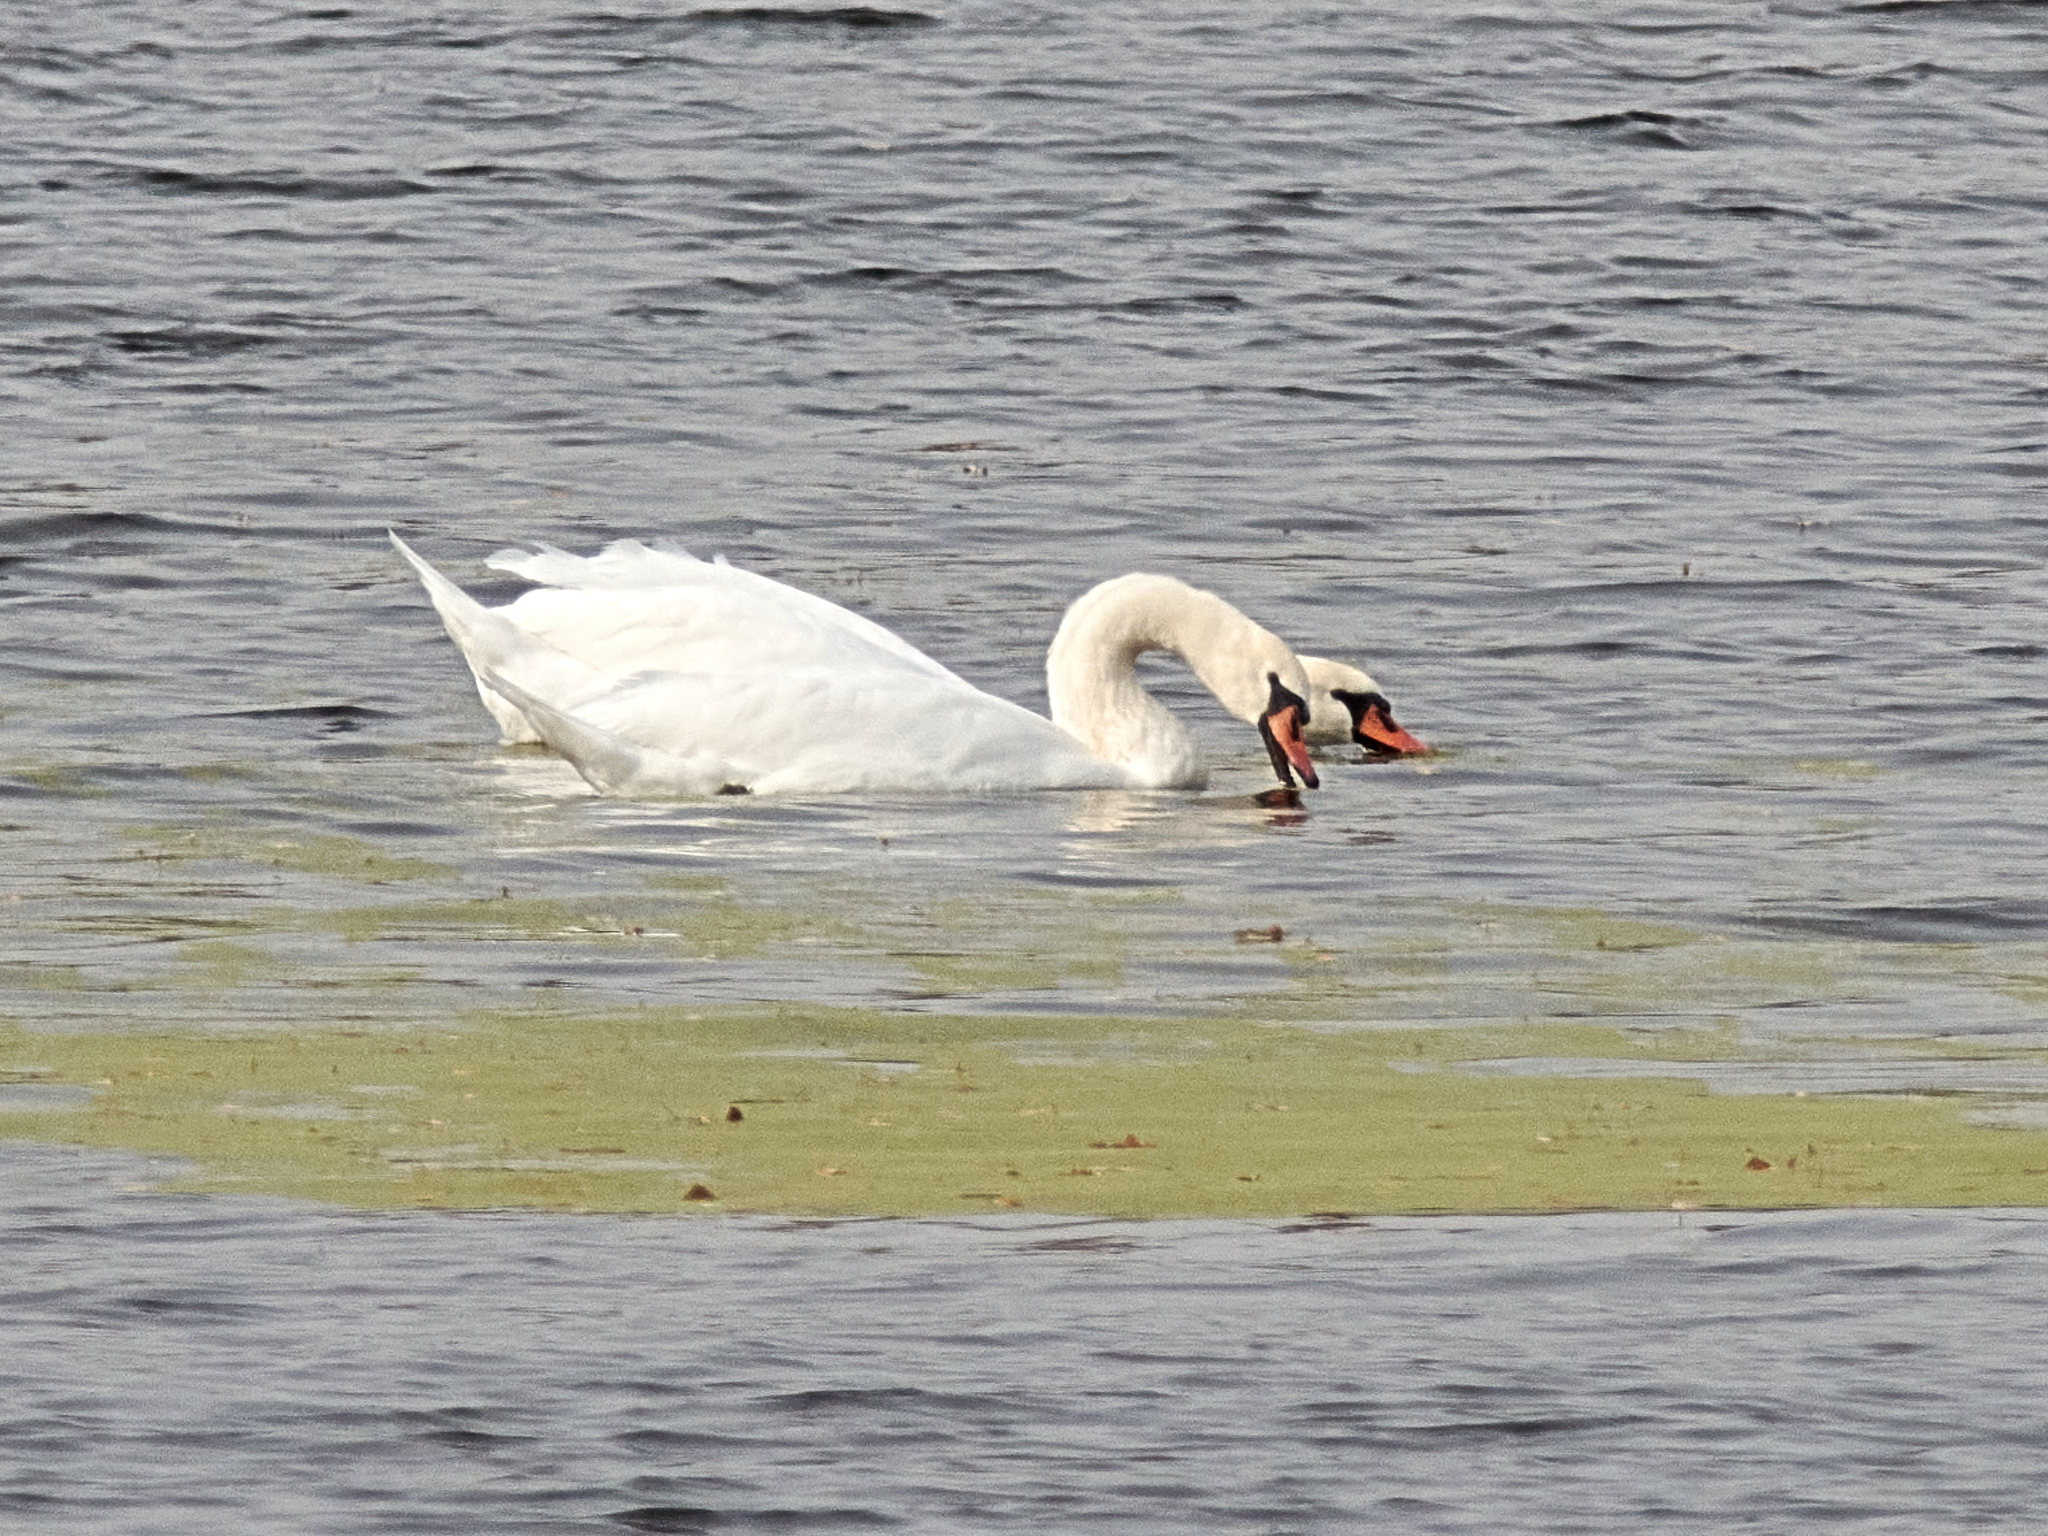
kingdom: Animalia
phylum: Chordata
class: Aves
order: Anseriformes
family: Anatidae
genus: Cygnus
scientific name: Cygnus olor
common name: Mute swan
